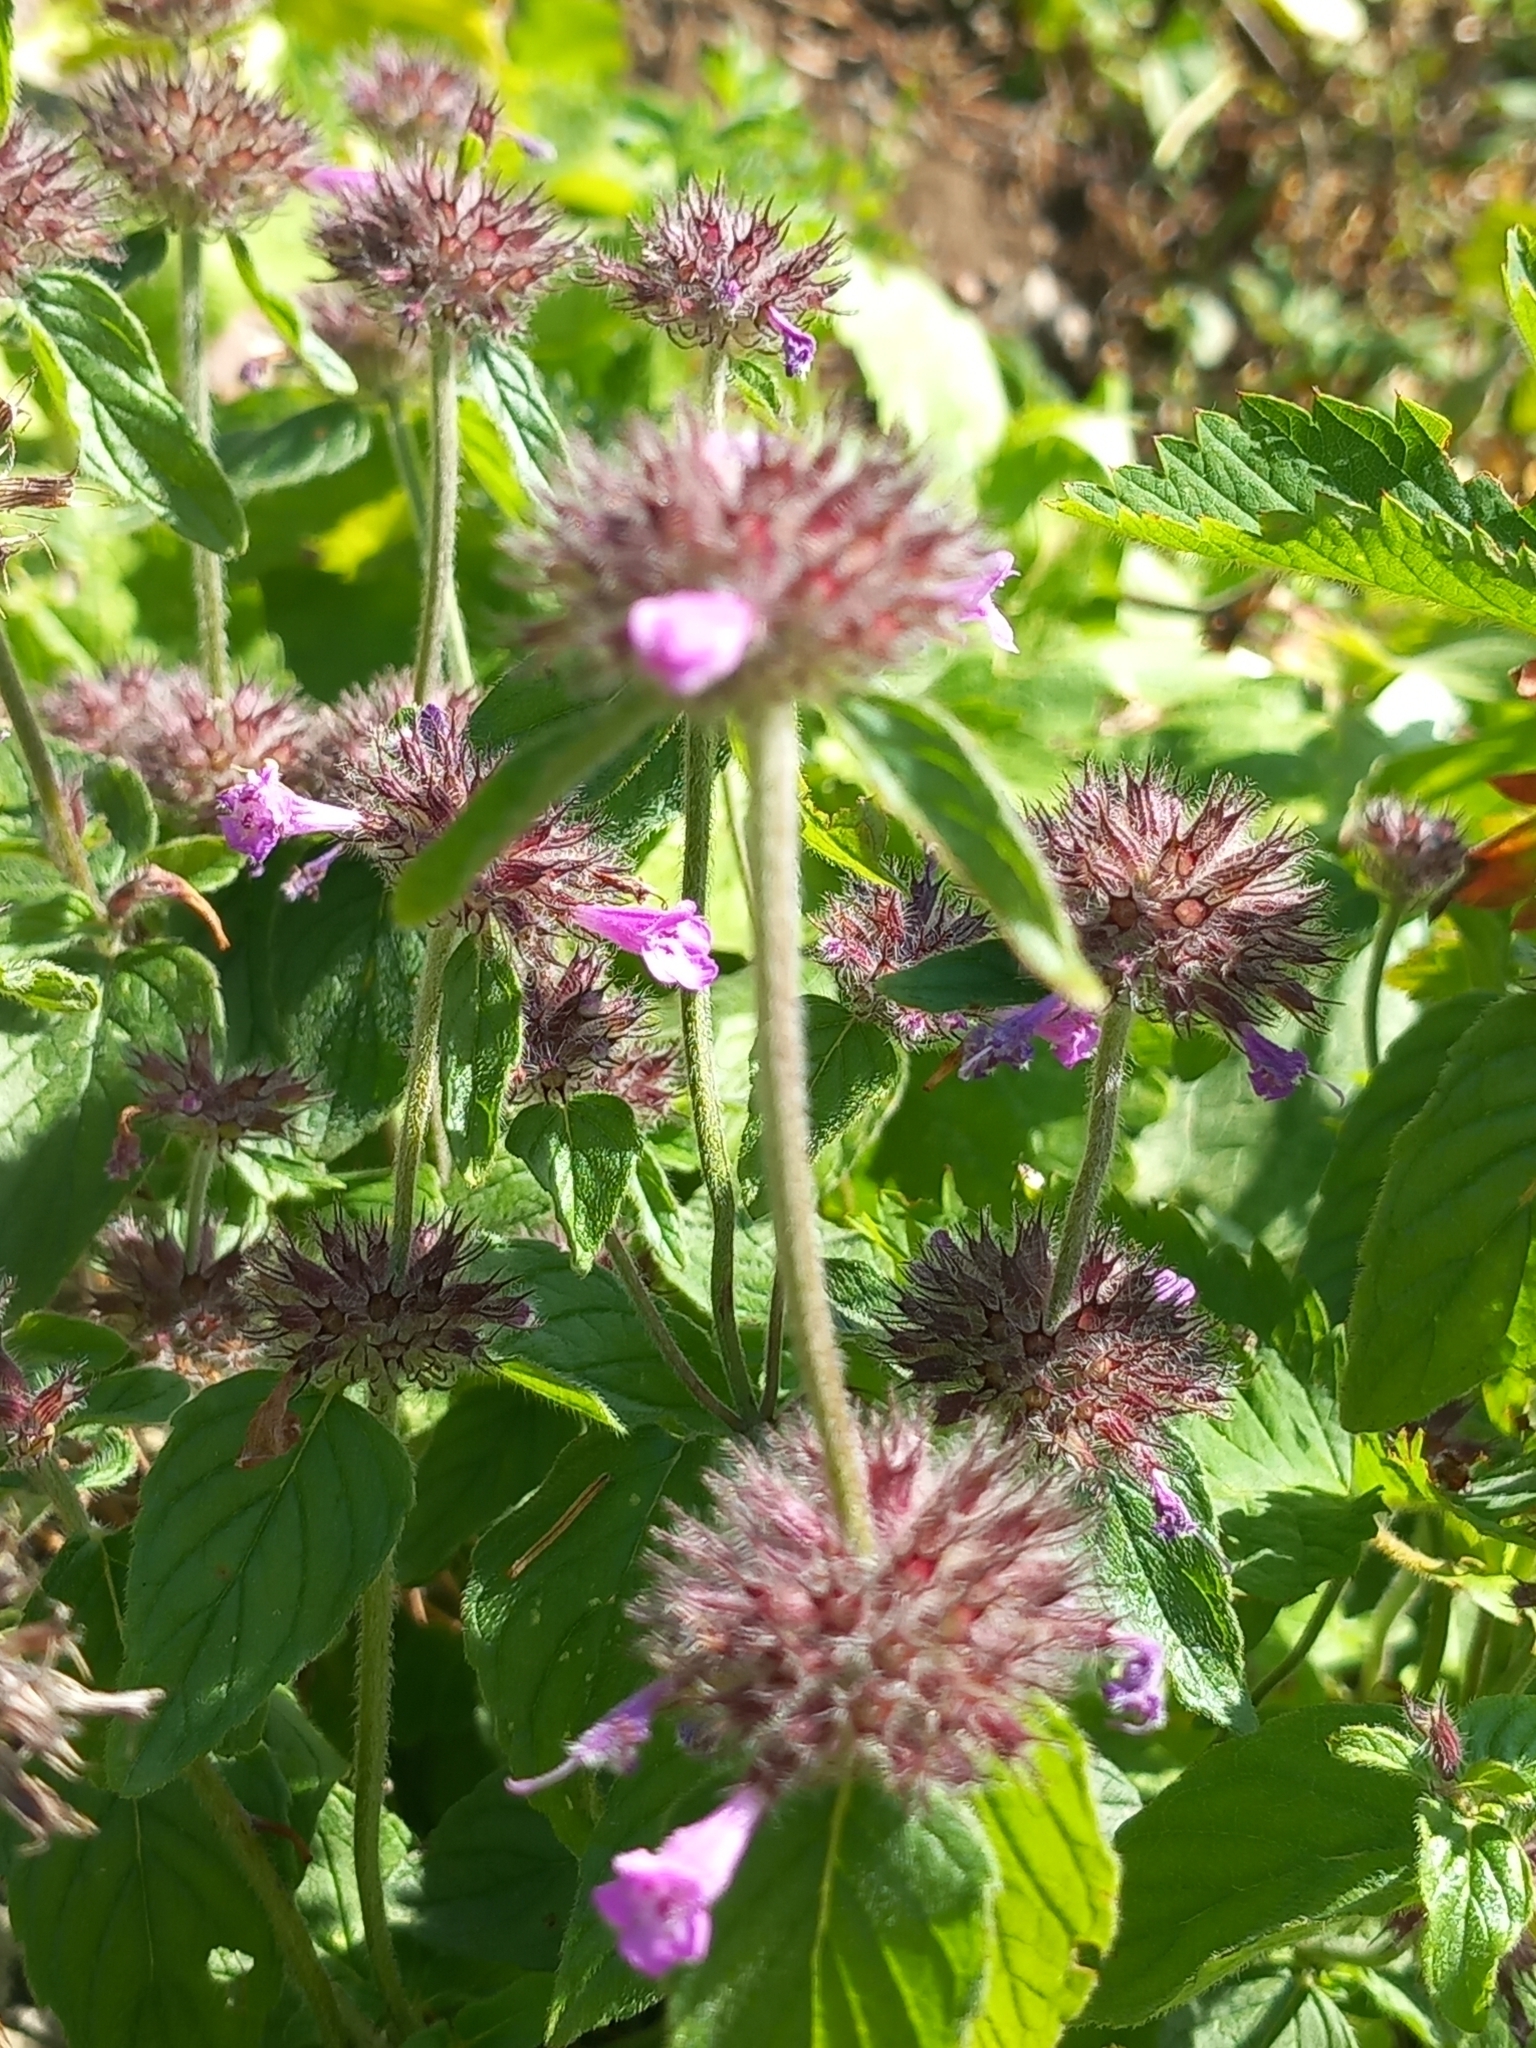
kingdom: Plantae
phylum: Tracheophyta
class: Magnoliopsida
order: Lamiales
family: Lamiaceae
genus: Clinopodium
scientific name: Clinopodium caucasicum
